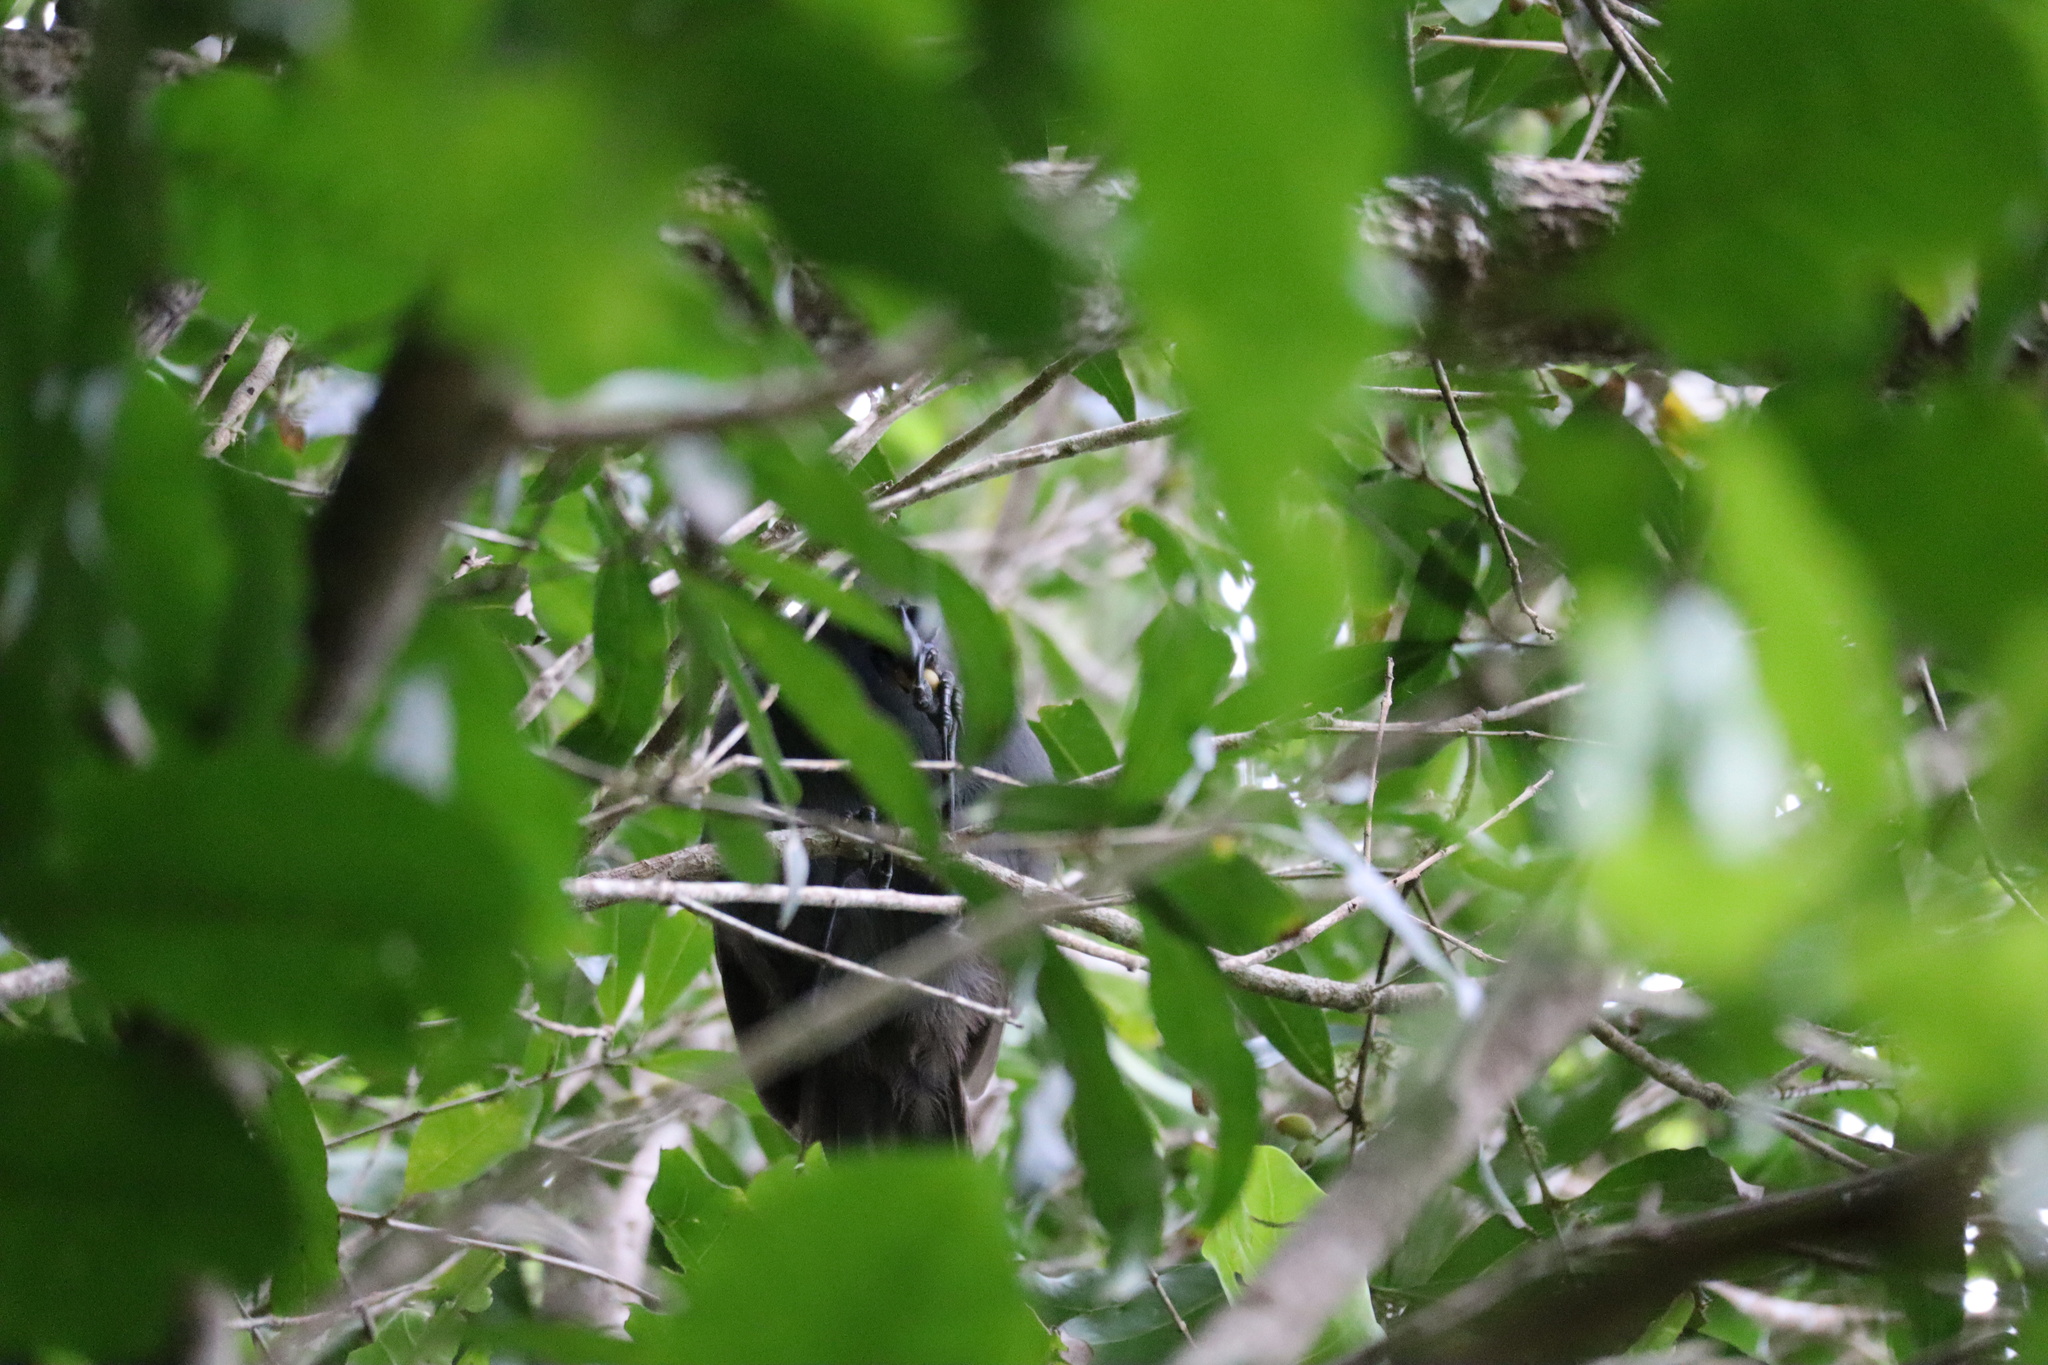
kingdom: Animalia
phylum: Chordata
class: Aves
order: Passeriformes
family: Callaeatidae
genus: Callaeas
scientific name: Callaeas cinereus
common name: South island kokako
